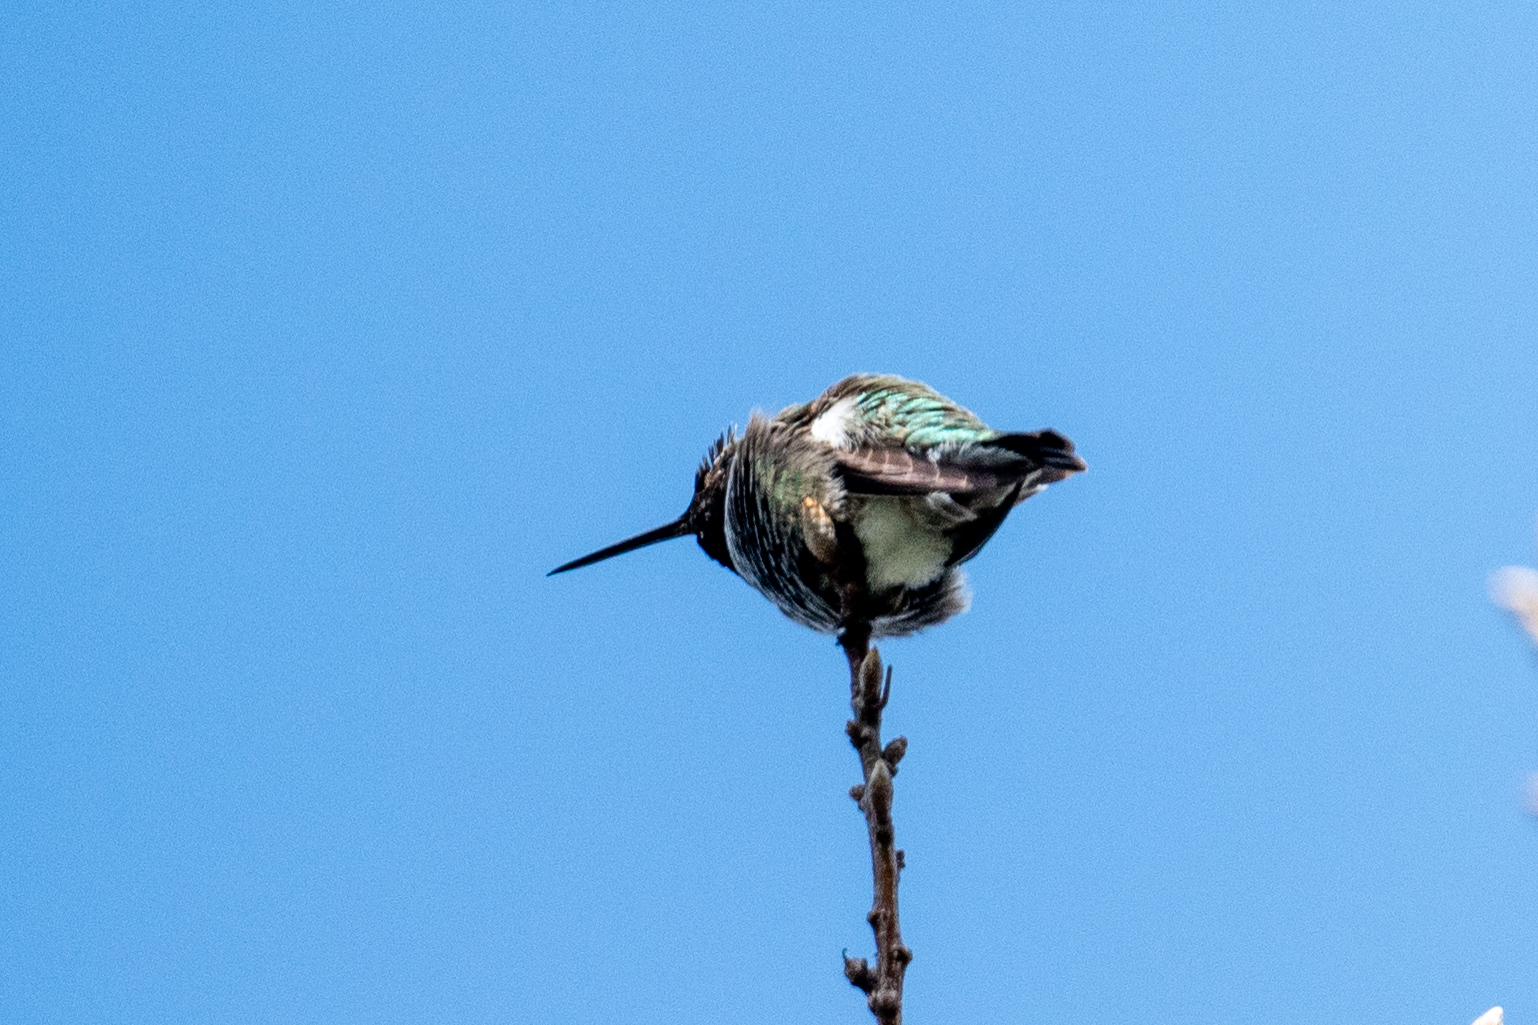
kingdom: Animalia
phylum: Chordata
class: Aves
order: Apodiformes
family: Trochilidae
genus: Calypte
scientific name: Calypte anna
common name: Anna's hummingbird
